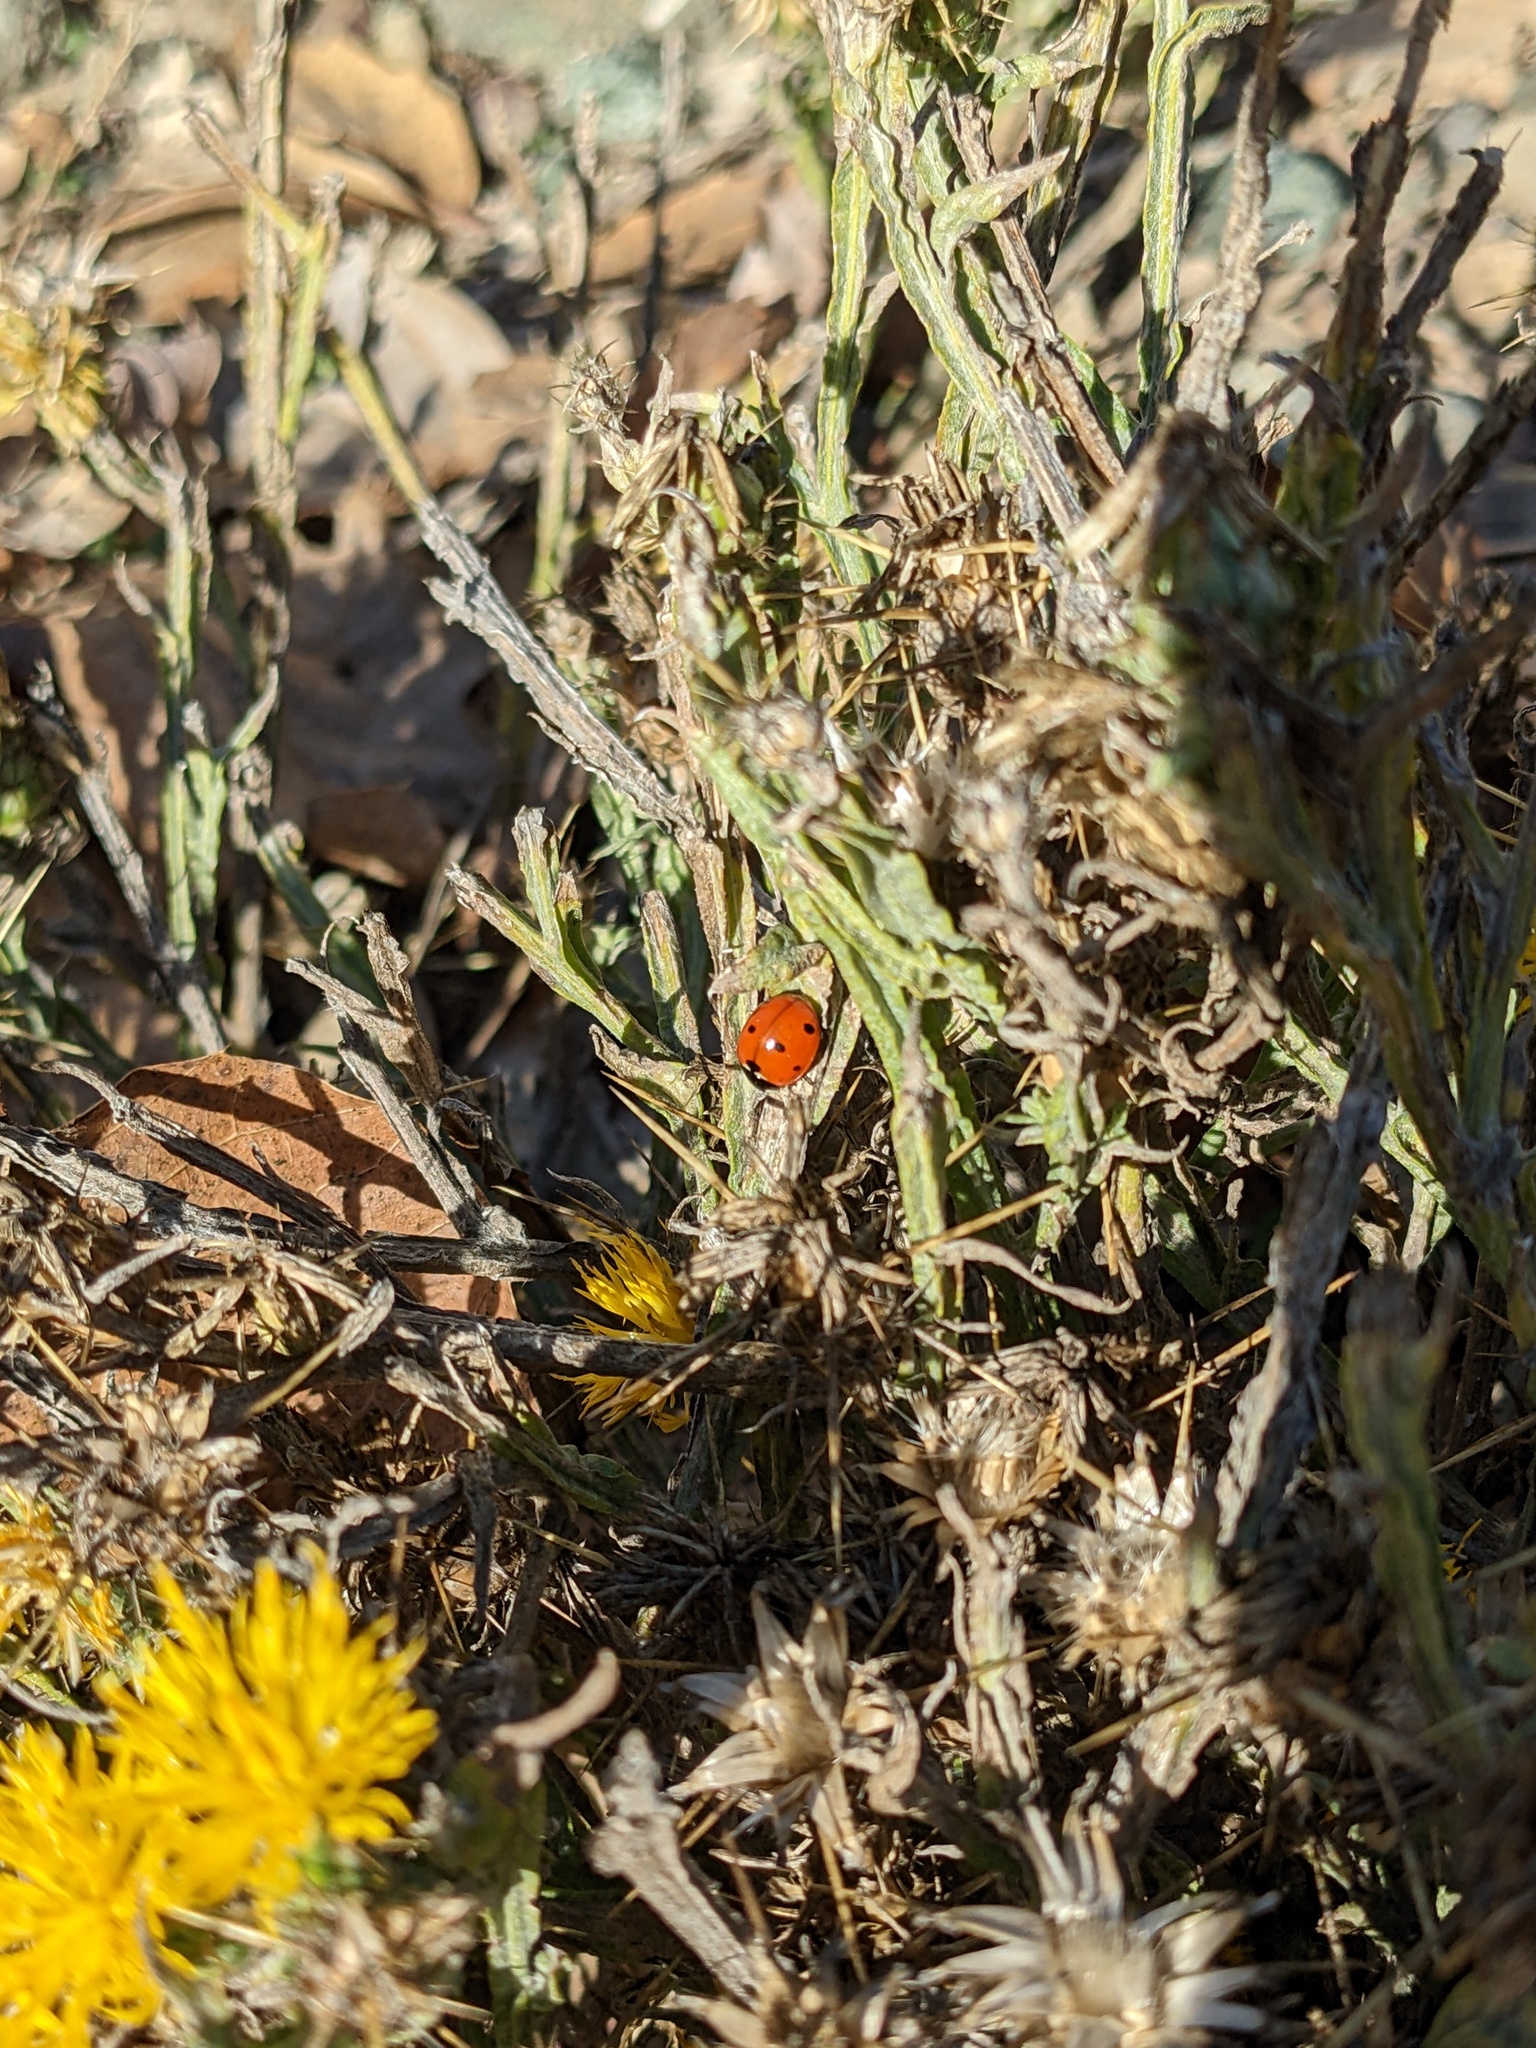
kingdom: Animalia
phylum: Arthropoda
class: Insecta
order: Coleoptera
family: Coccinellidae
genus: Coccinella
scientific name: Coccinella septempunctata
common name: Sevenspotted lady beetle
